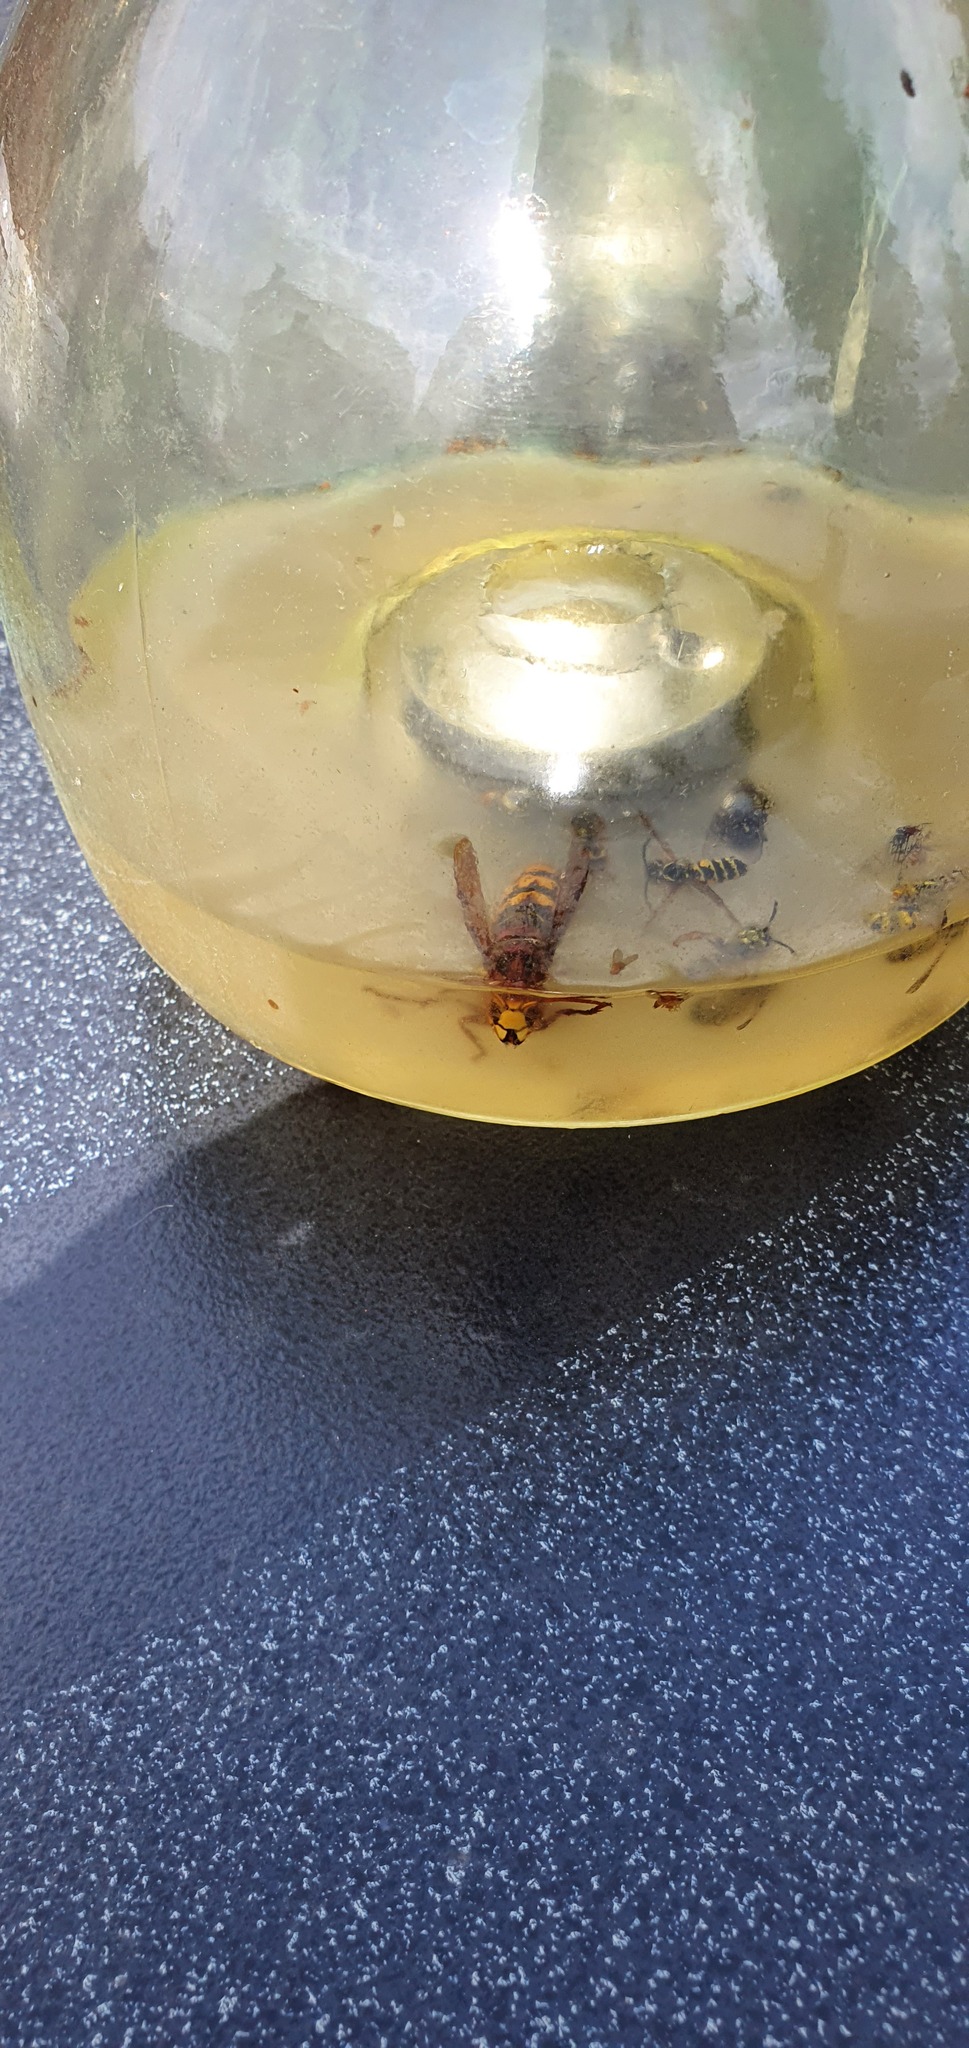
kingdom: Animalia
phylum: Arthropoda
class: Insecta
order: Hymenoptera
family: Vespidae
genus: Vespa
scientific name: Vespa crabro
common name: Hornet
